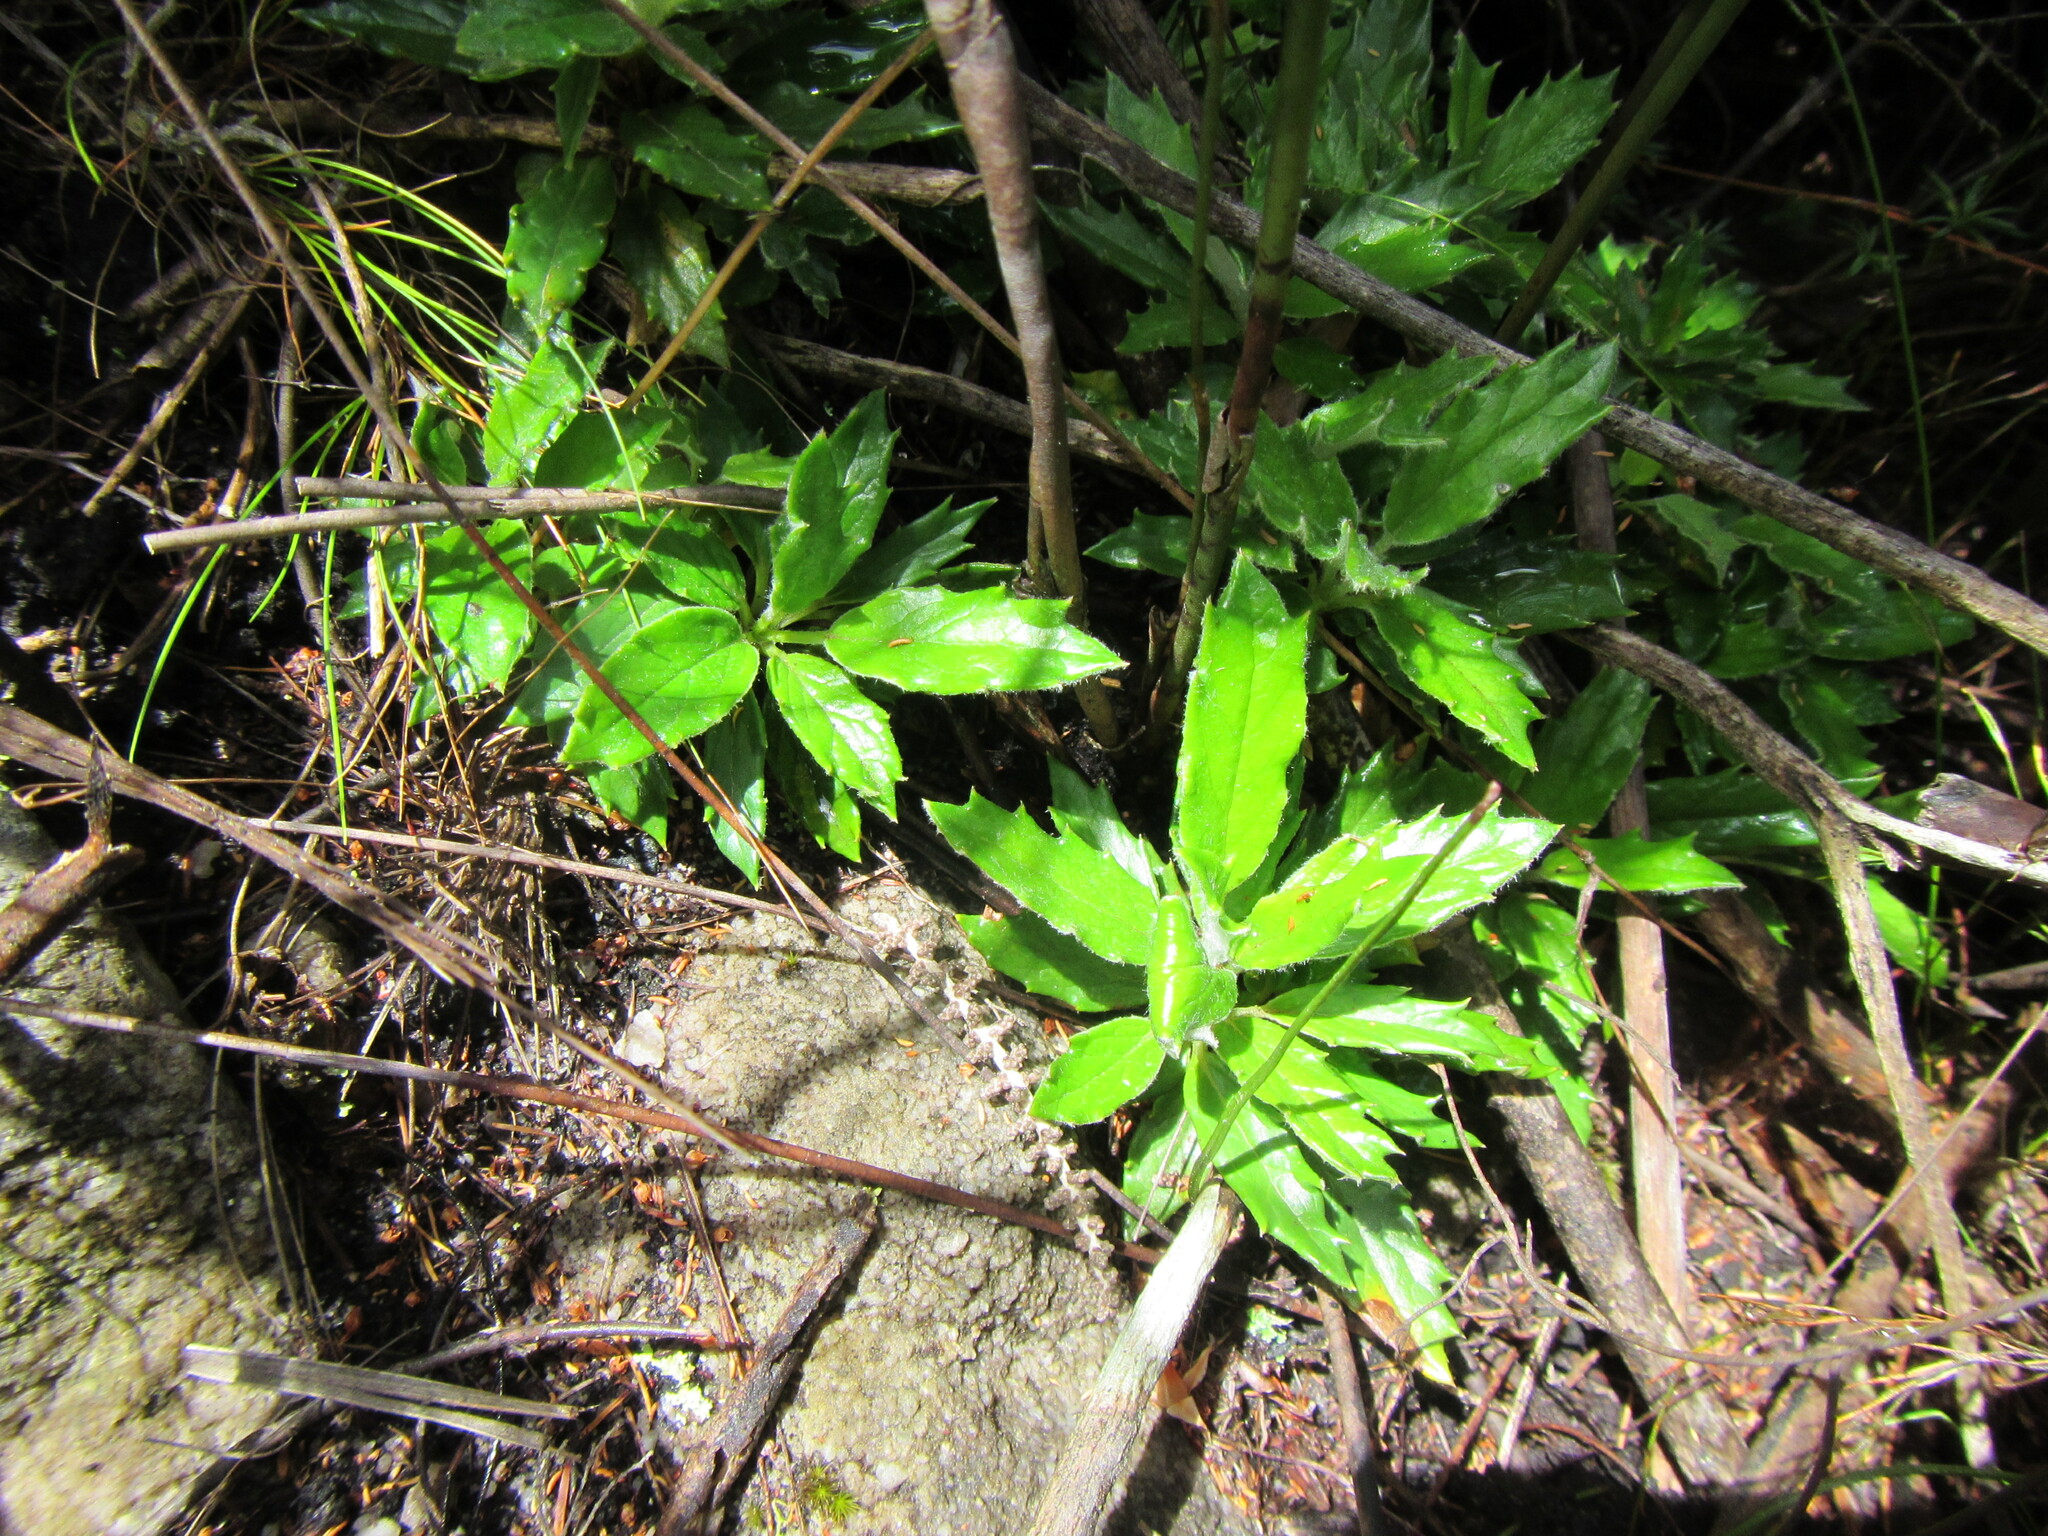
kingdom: Plantae
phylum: Tracheophyta
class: Magnoliopsida
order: Apiales
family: Apiaceae
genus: Hermas
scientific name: Hermas quinquedentata
